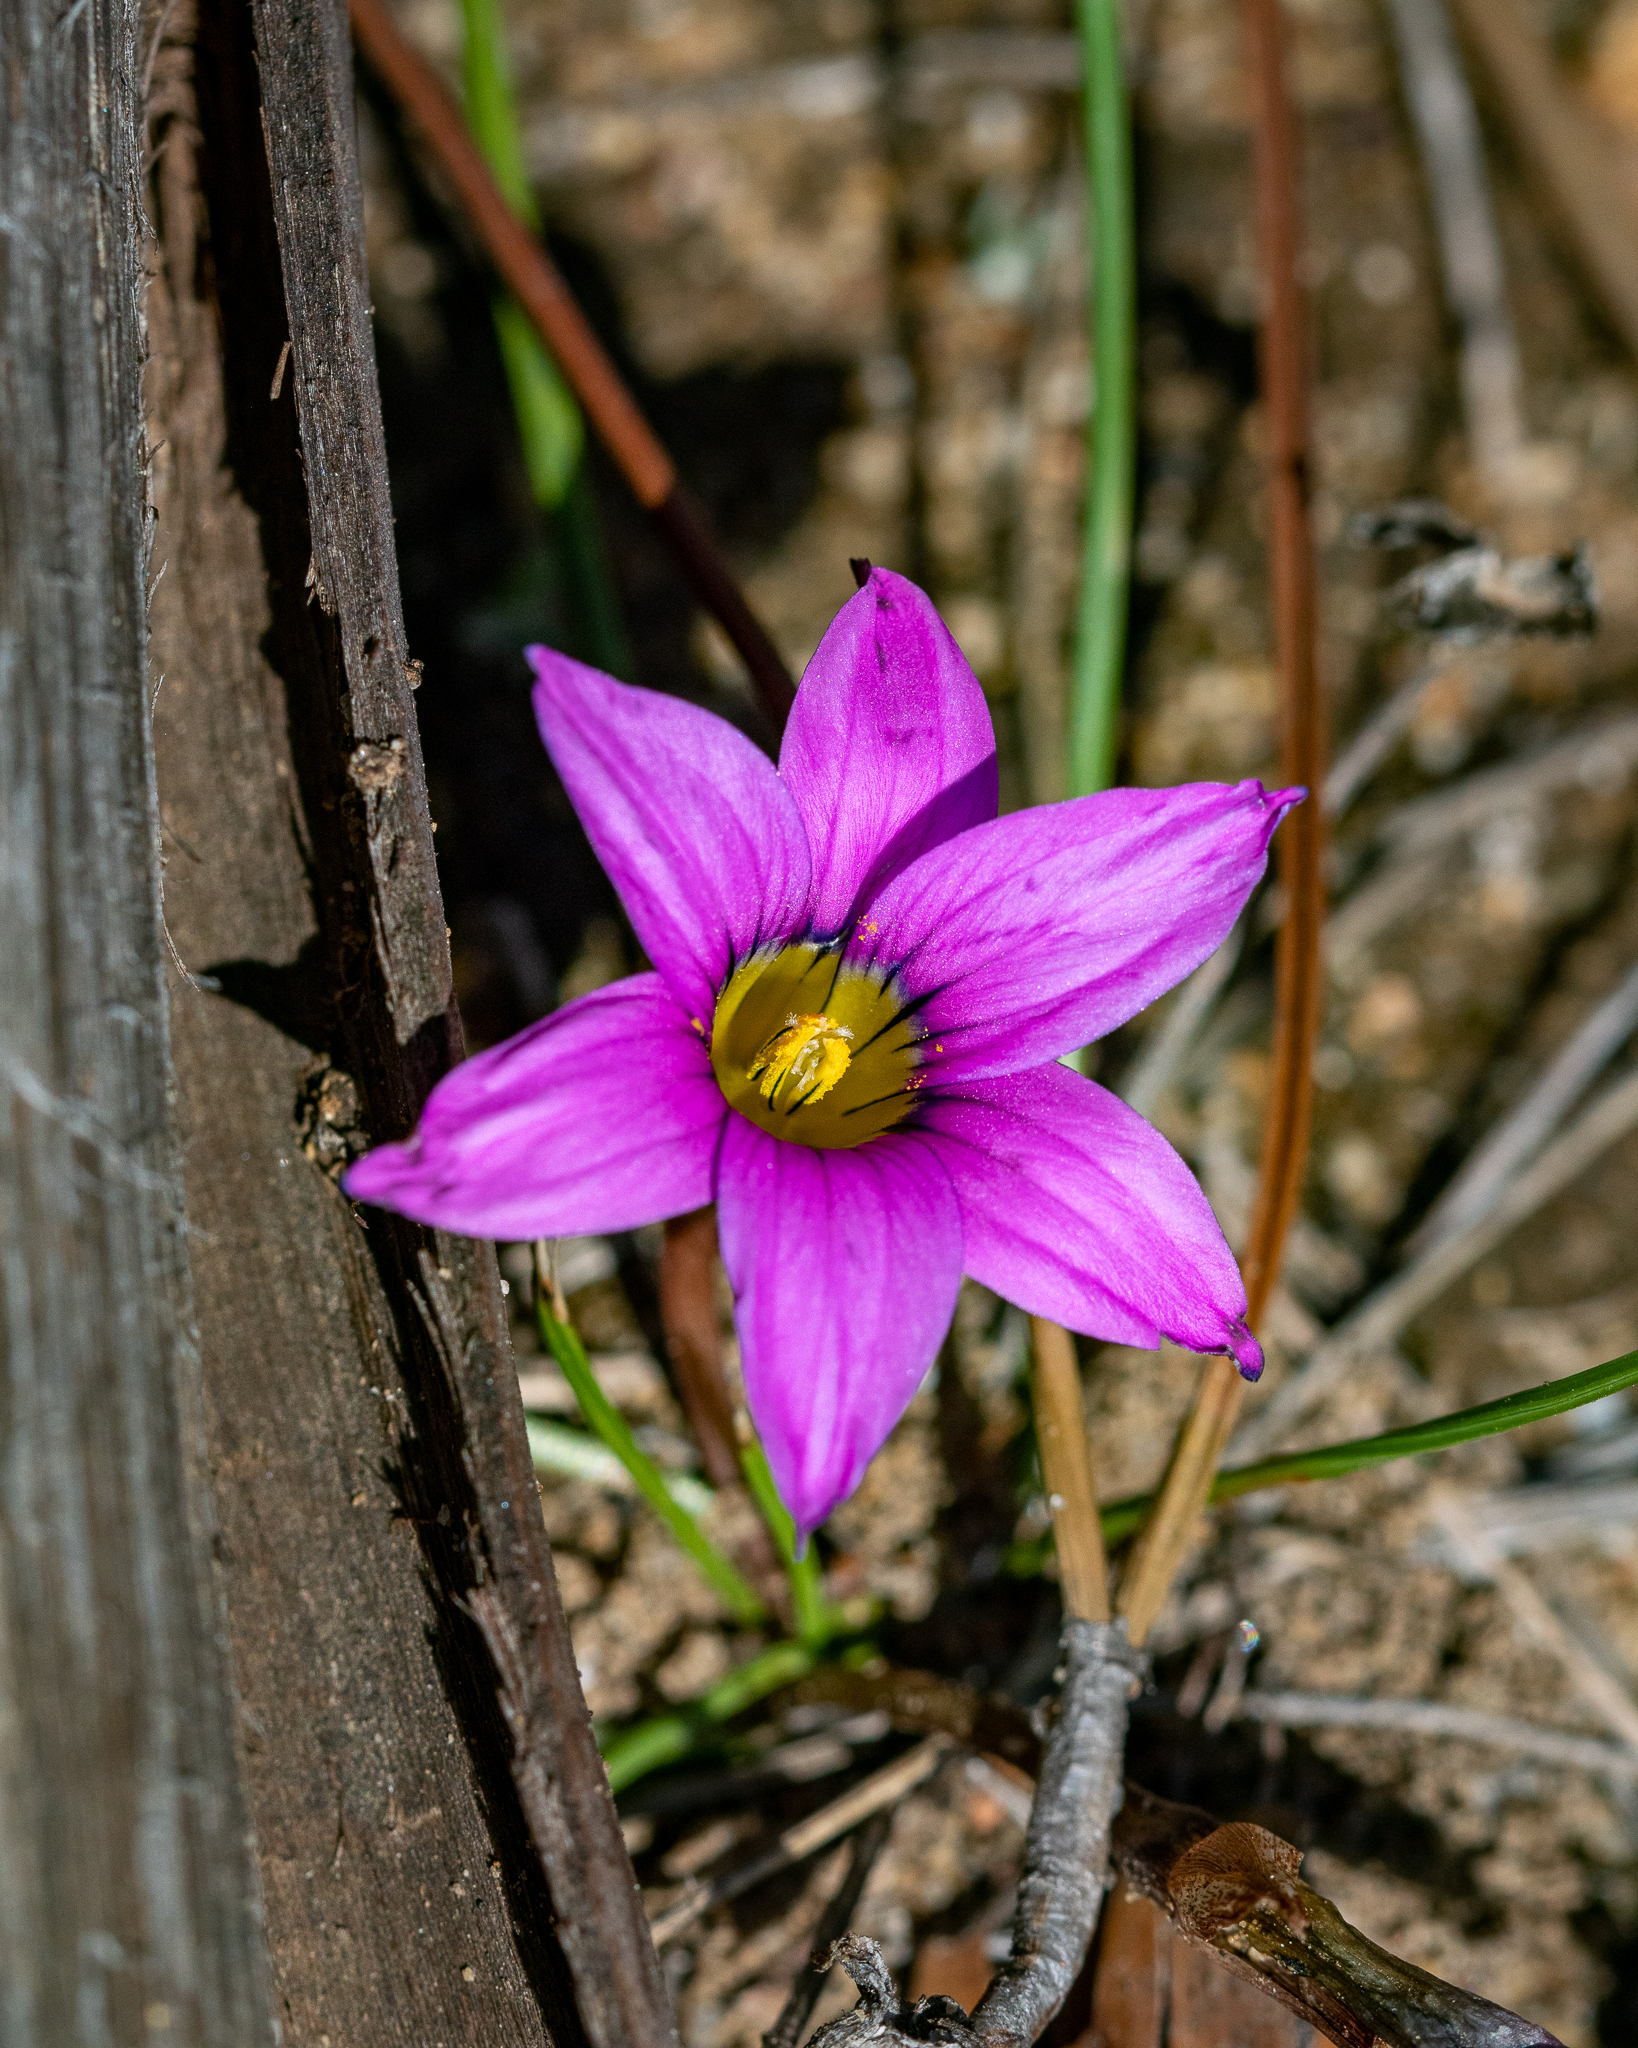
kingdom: Plantae
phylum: Tracheophyta
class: Liliopsida
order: Asparagales
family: Iridaceae
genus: Romulea
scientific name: Romulea rosea
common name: Oniongrass
